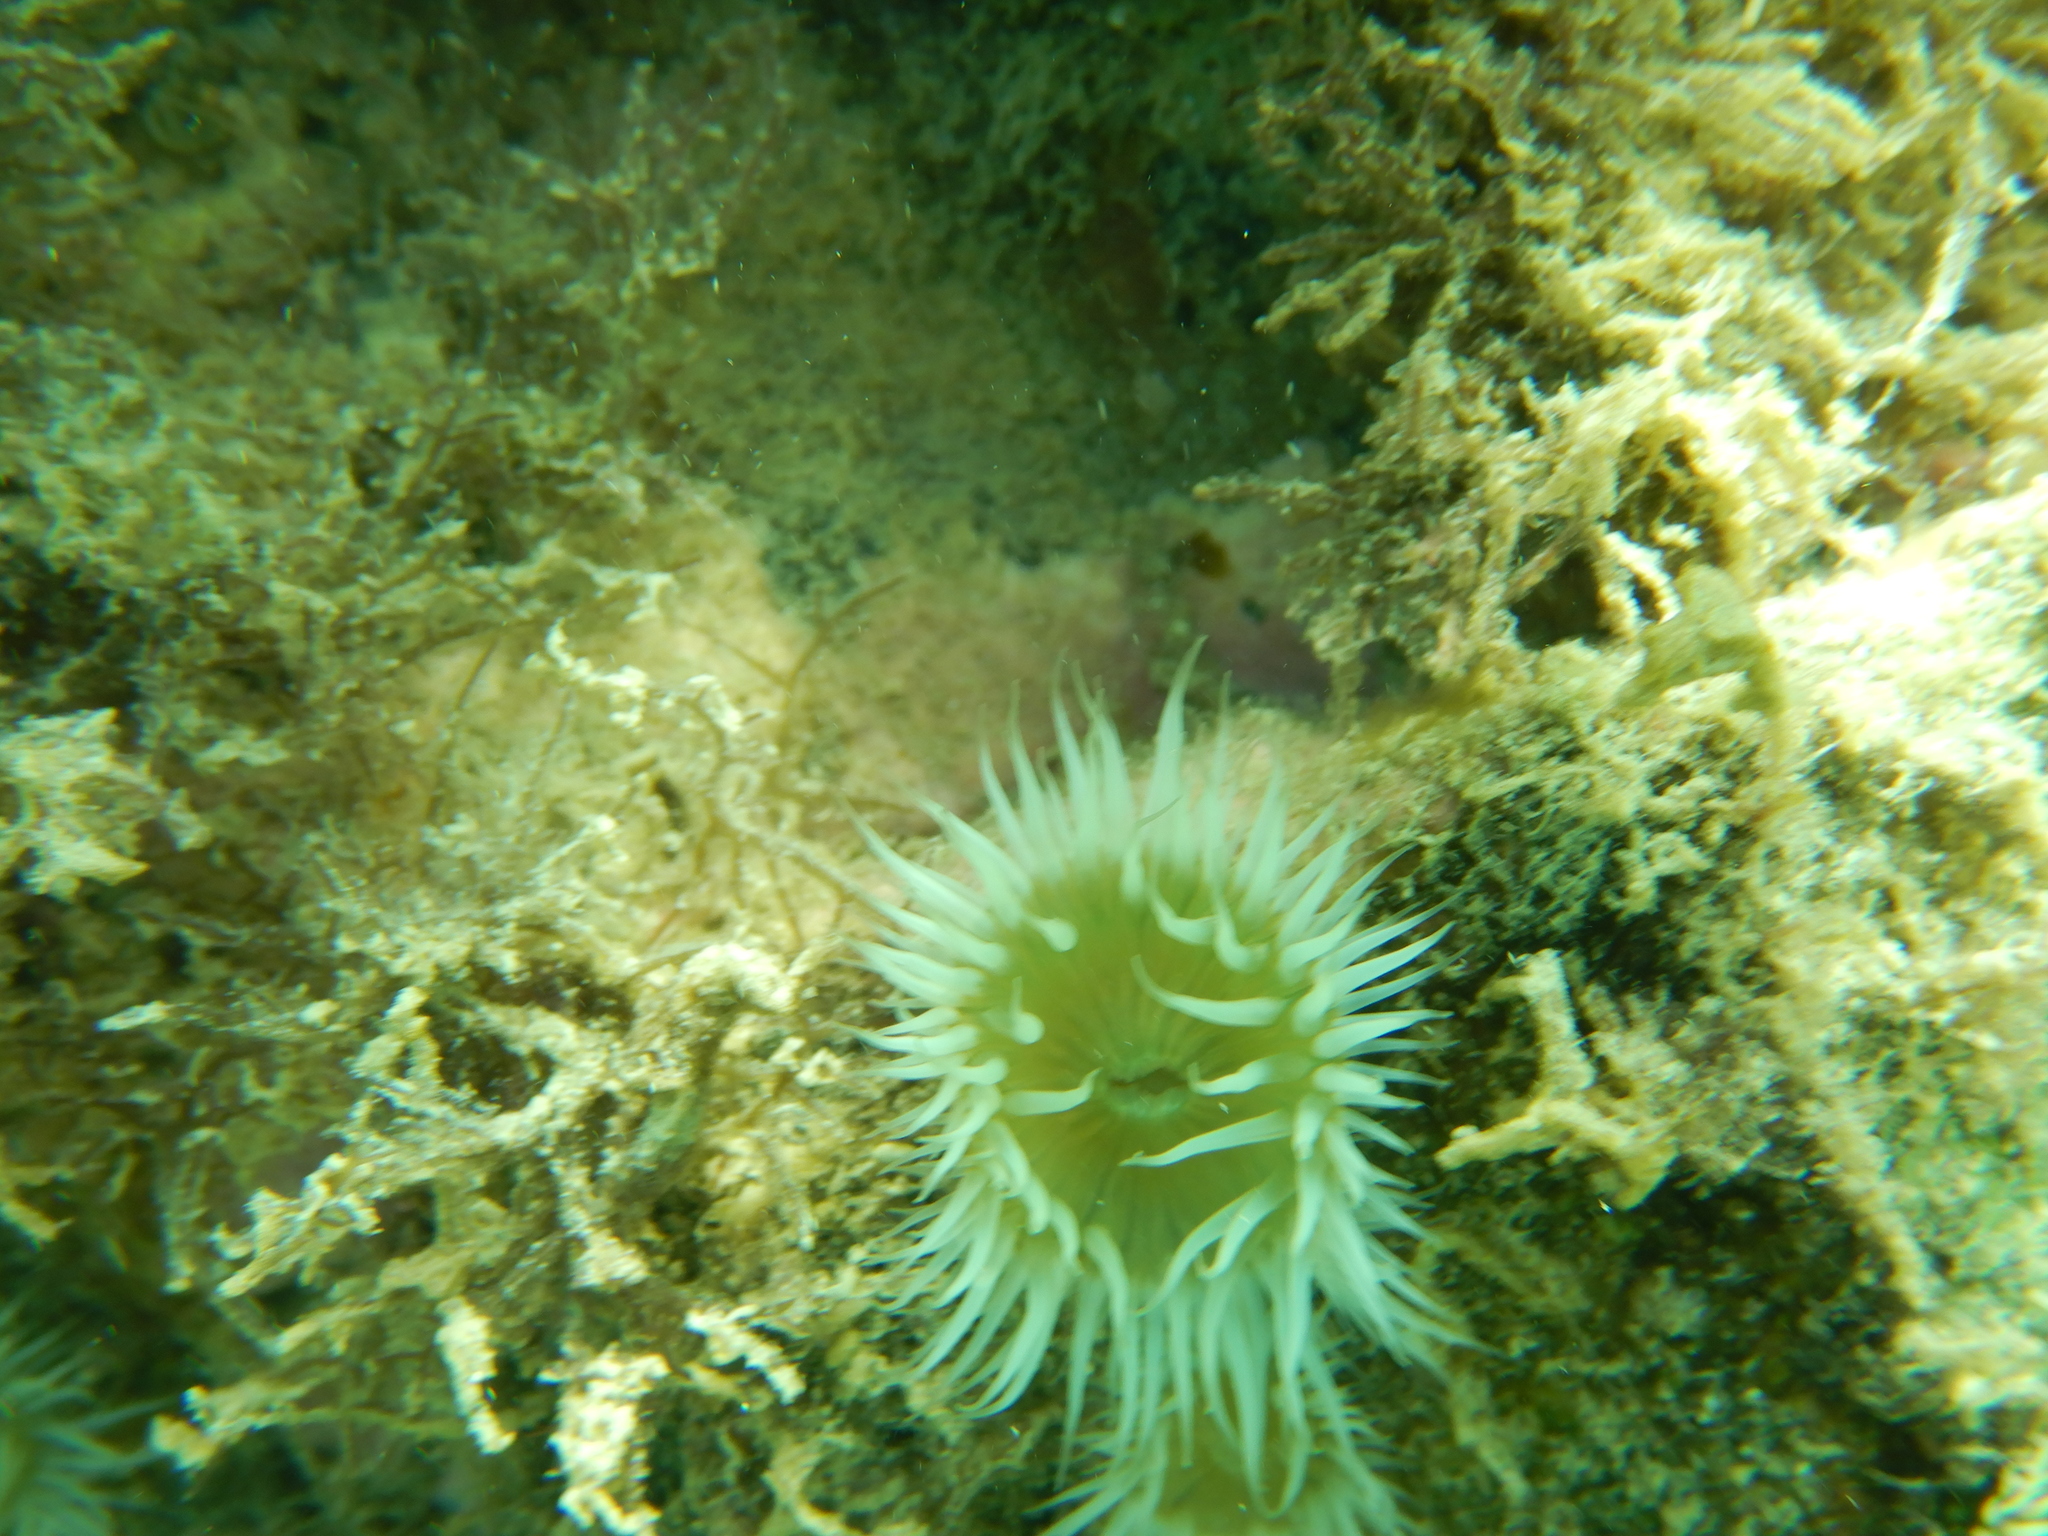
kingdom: Animalia
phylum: Cnidaria
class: Anthozoa
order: Actiniaria
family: Sagartiidae
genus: Anthothoe
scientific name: Anthothoe albocincta
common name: Orange striped anemone
